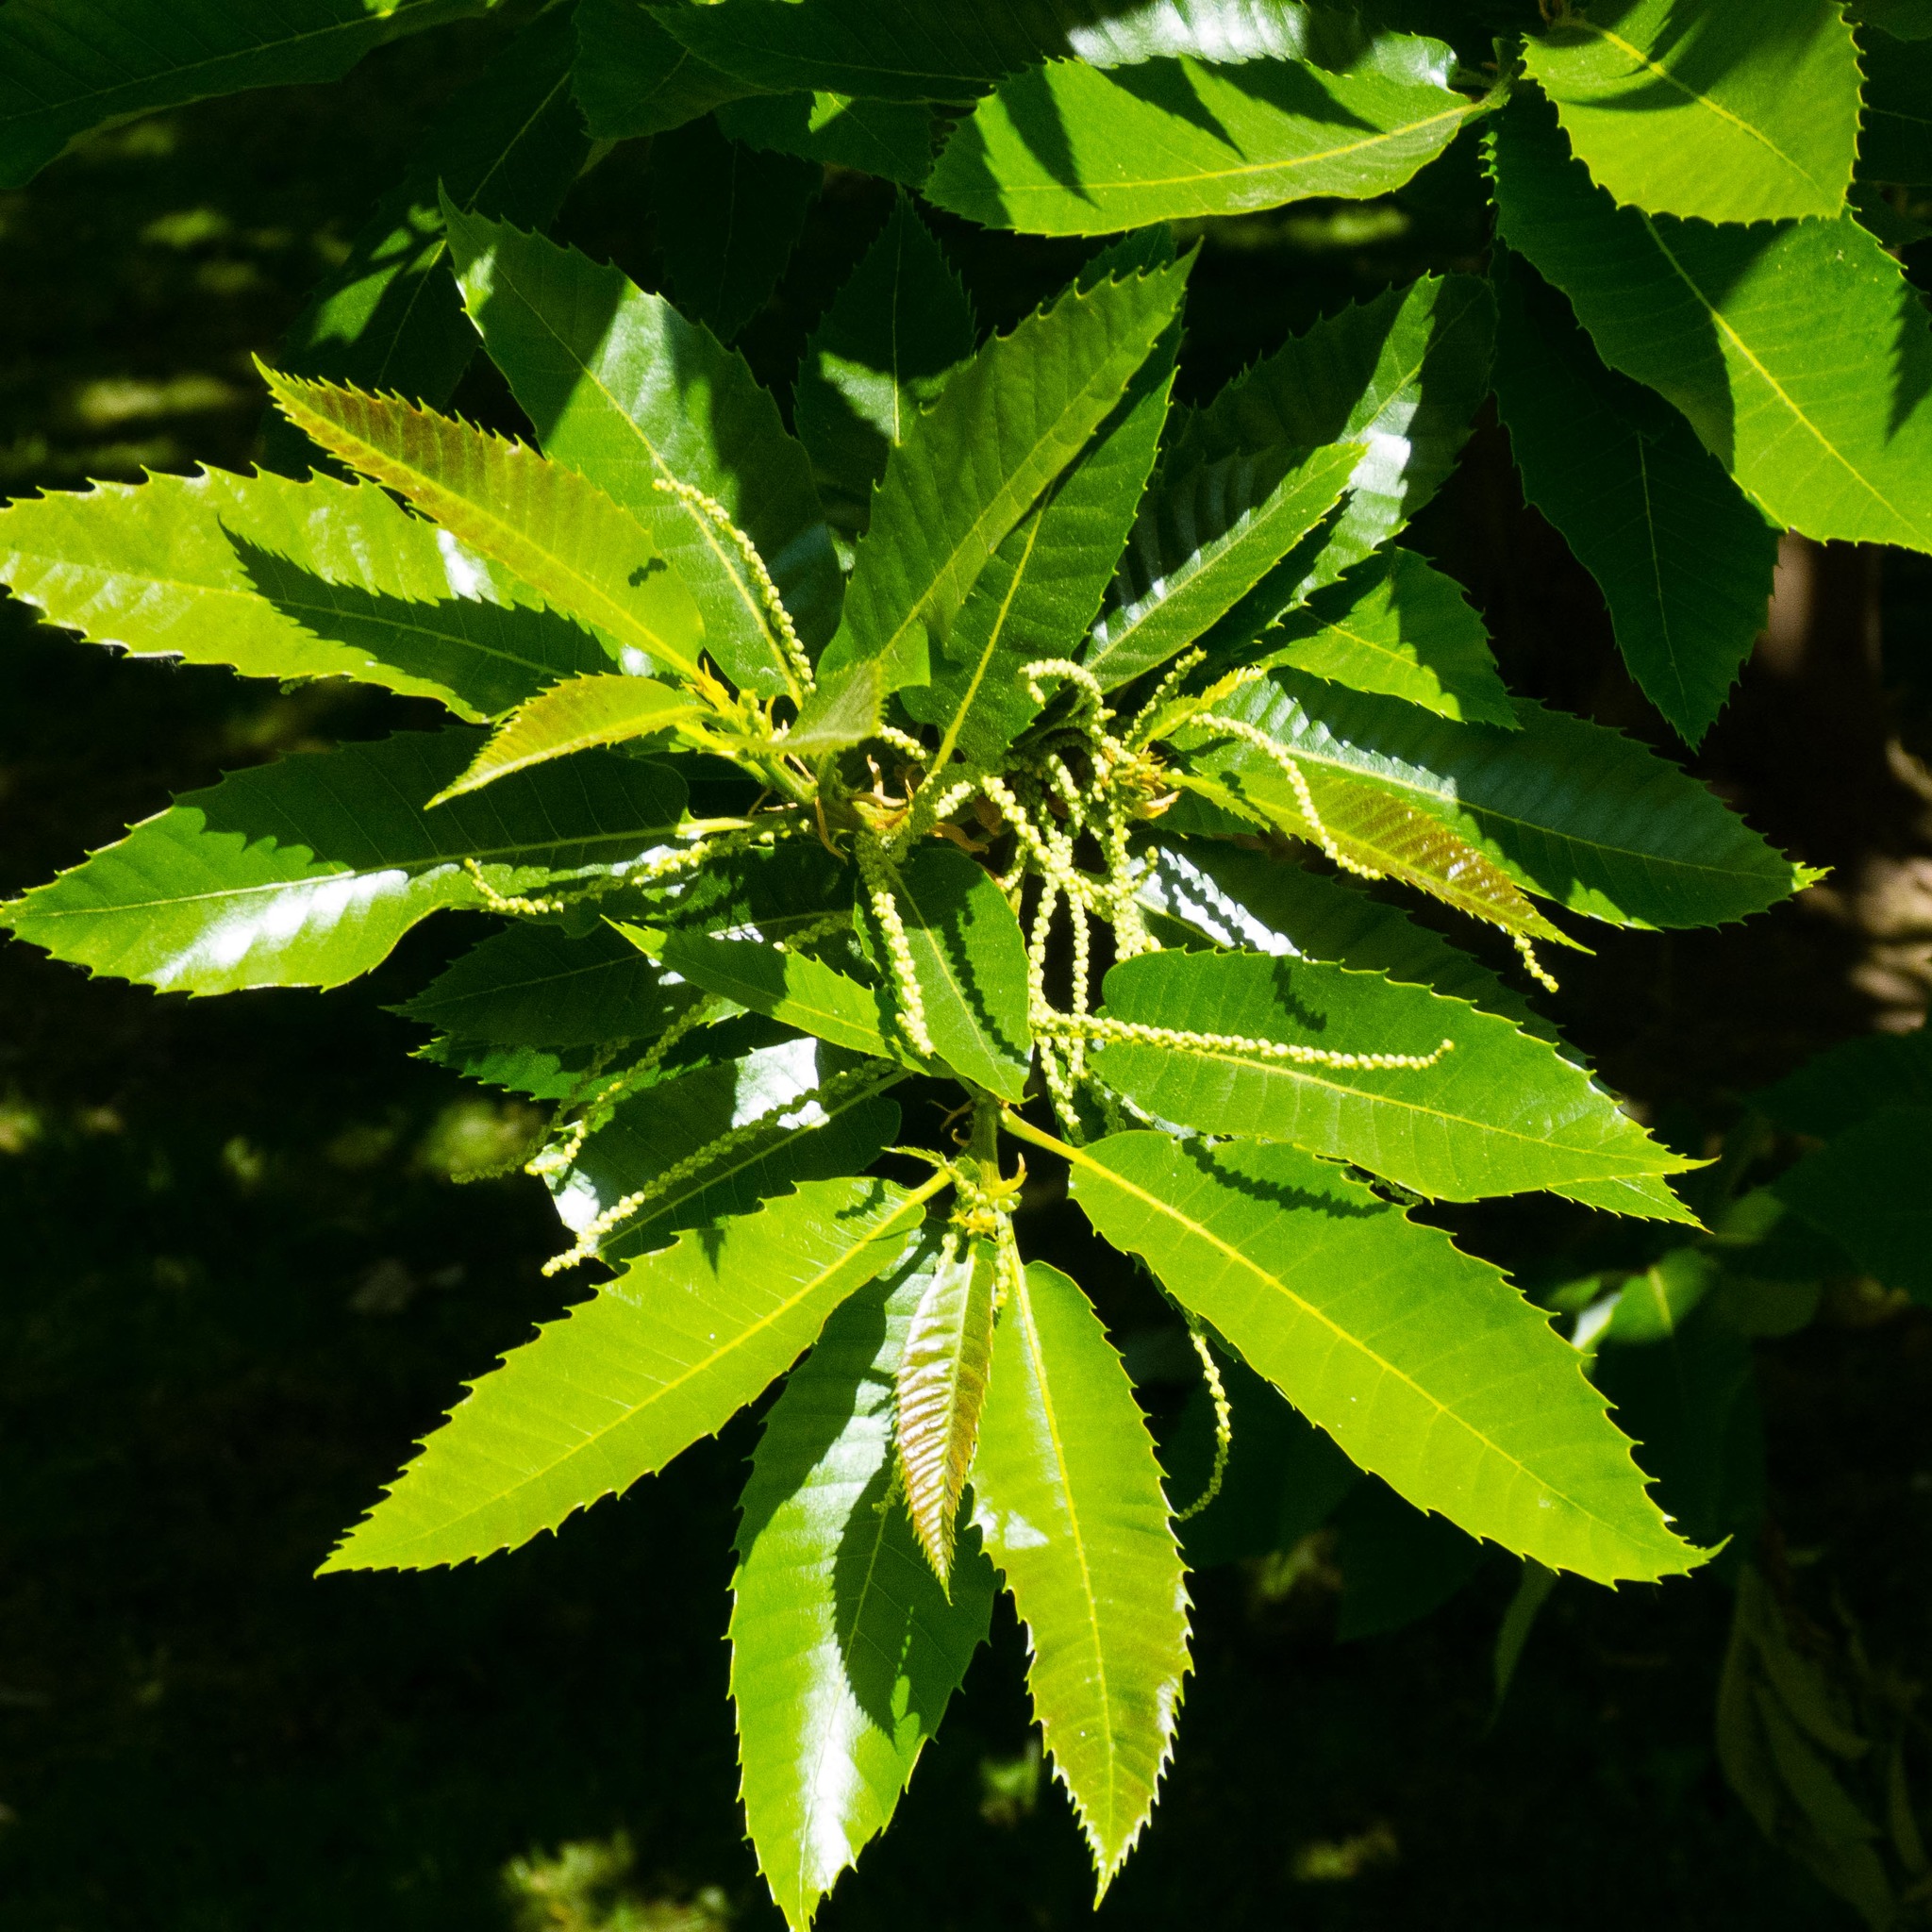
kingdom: Plantae
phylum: Tracheophyta
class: Magnoliopsida
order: Fagales
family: Fagaceae
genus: Castanea
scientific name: Castanea sativa
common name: Sweet chestnut
